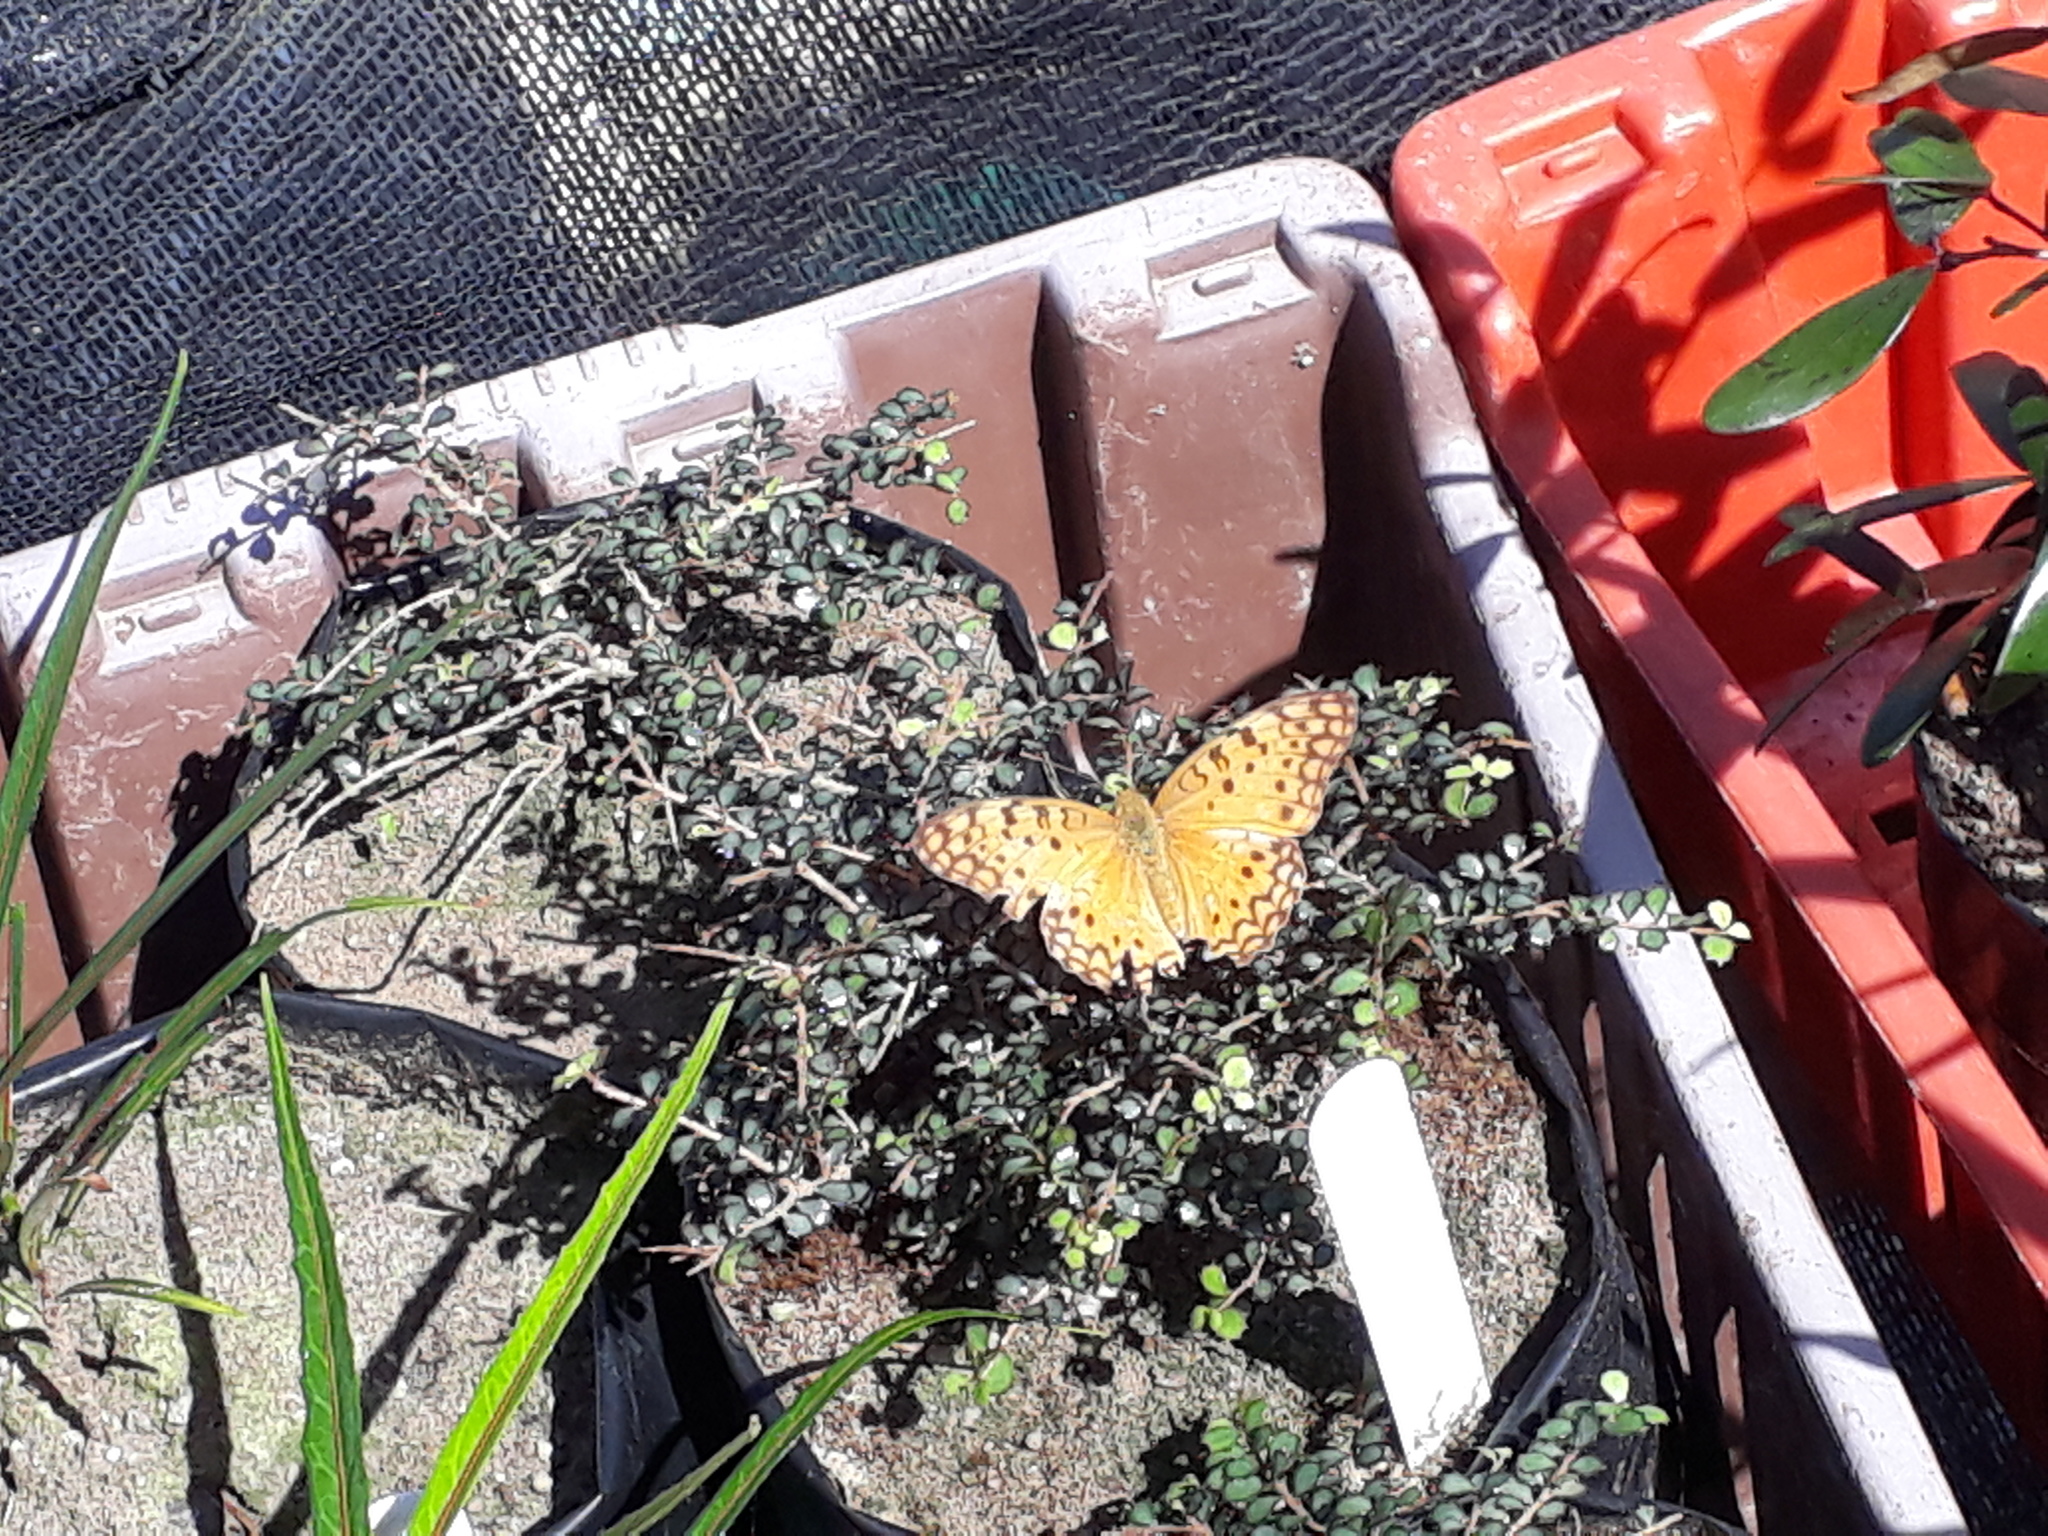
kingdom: Animalia
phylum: Arthropoda
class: Insecta
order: Lepidoptera
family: Nymphalidae
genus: Phalanta
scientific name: Phalanta phalantha
